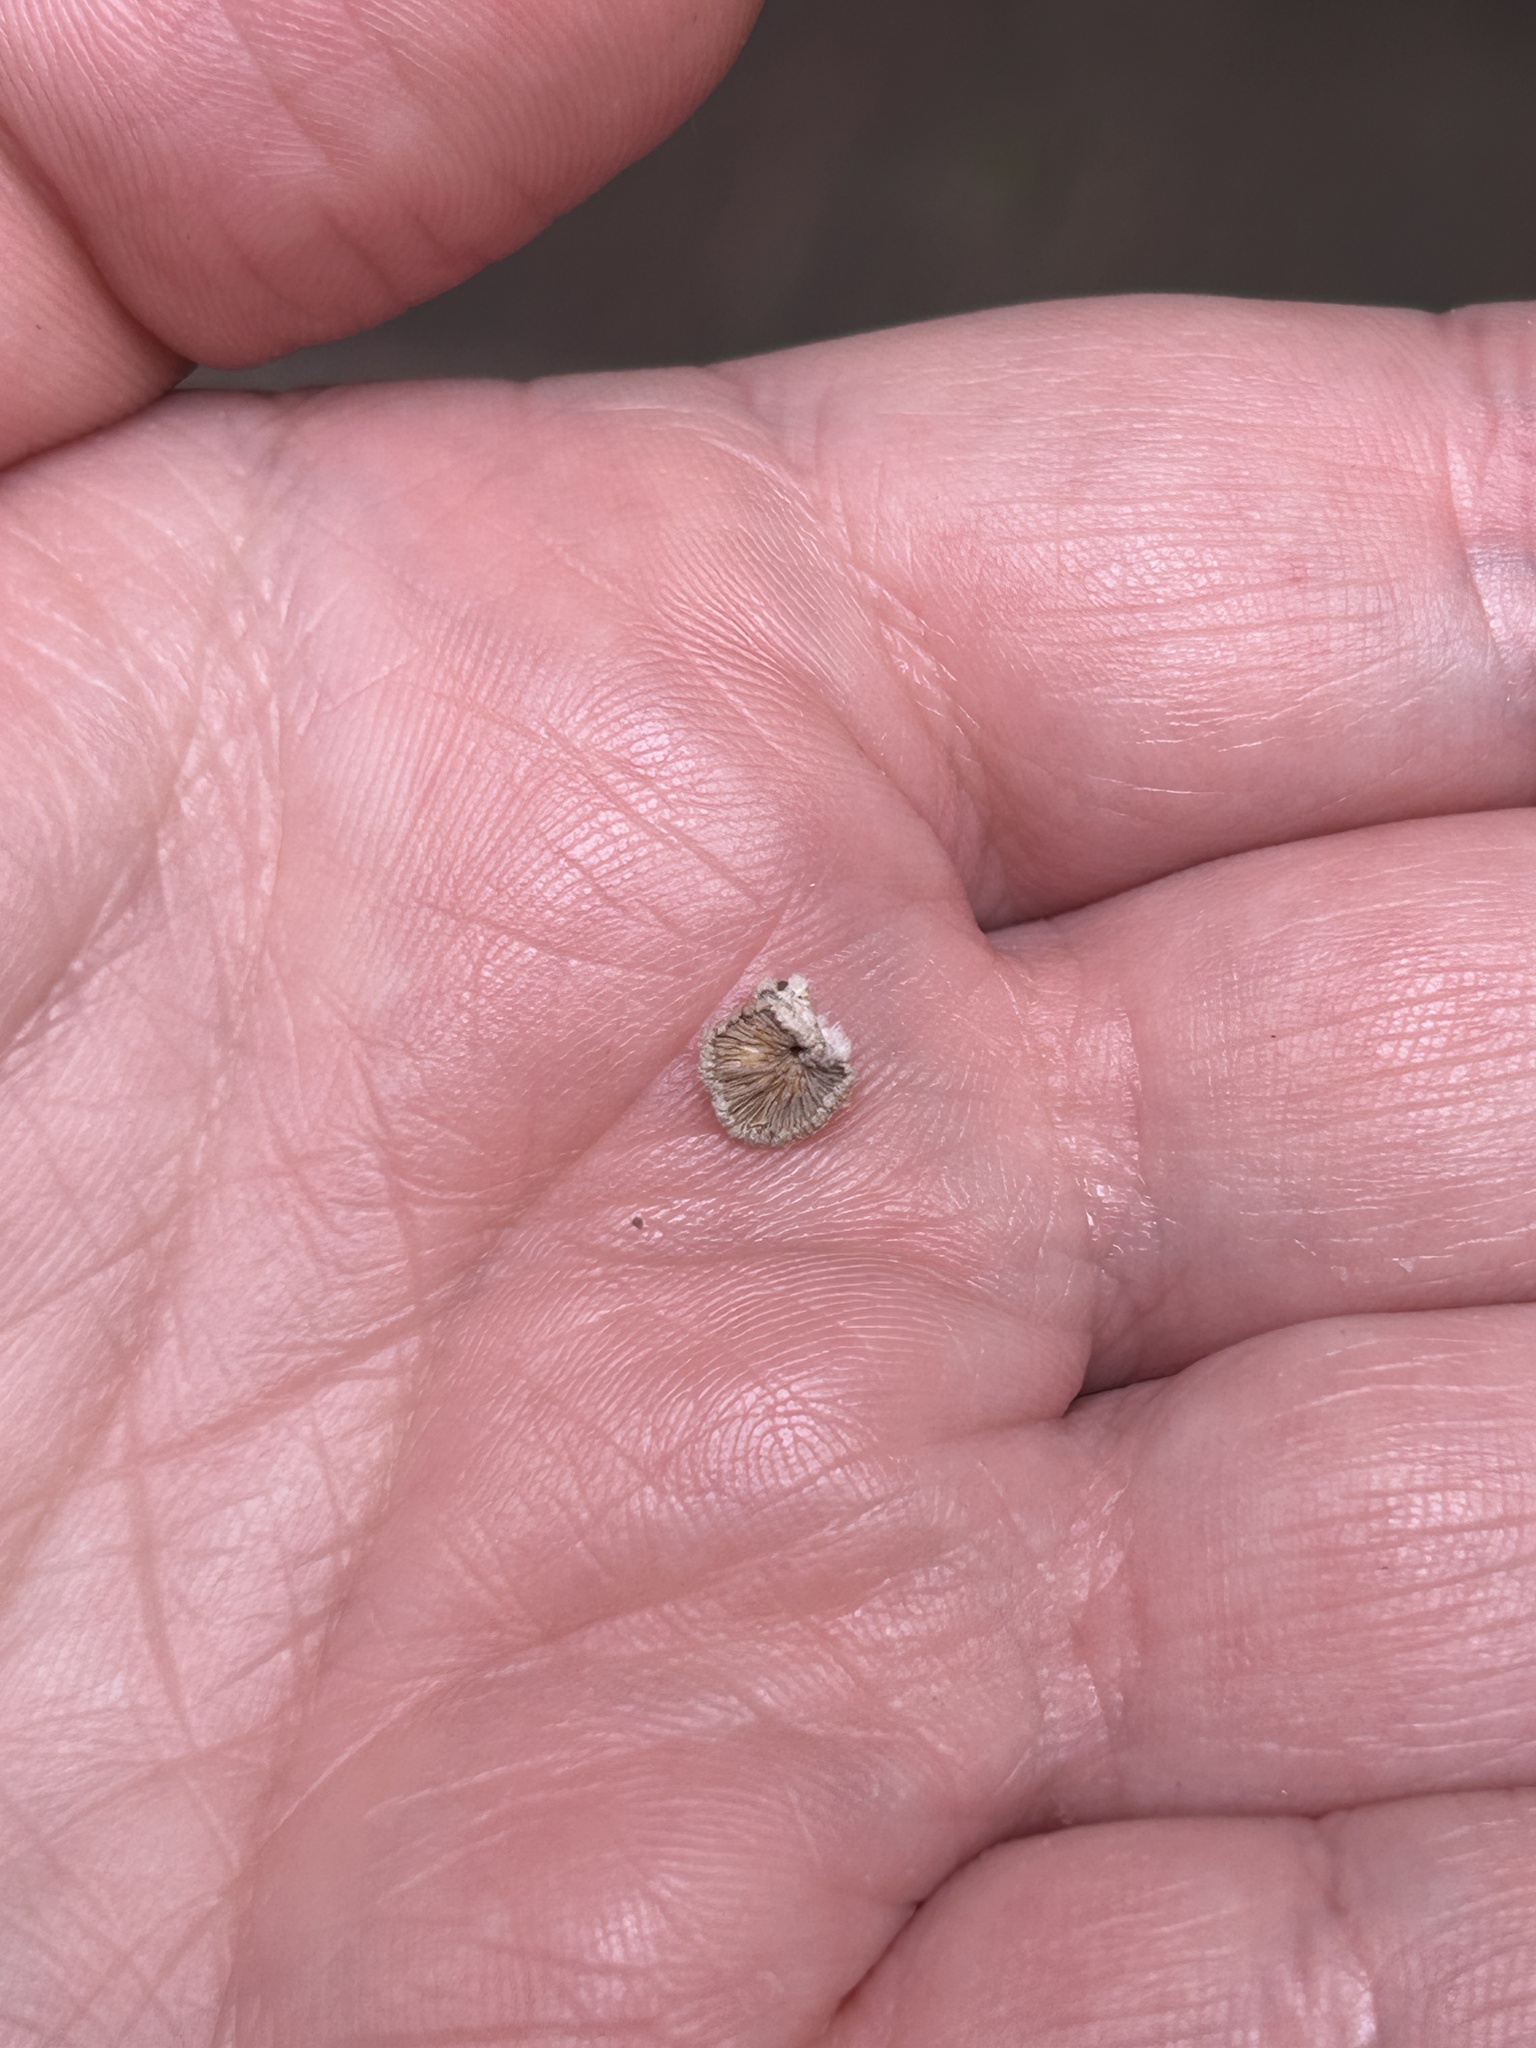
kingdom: Fungi
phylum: Basidiomycota
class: Agaricomycetes
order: Agaricales
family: Schizophyllaceae
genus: Schizophyllum
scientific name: Schizophyllum commune
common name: Common porecrust
